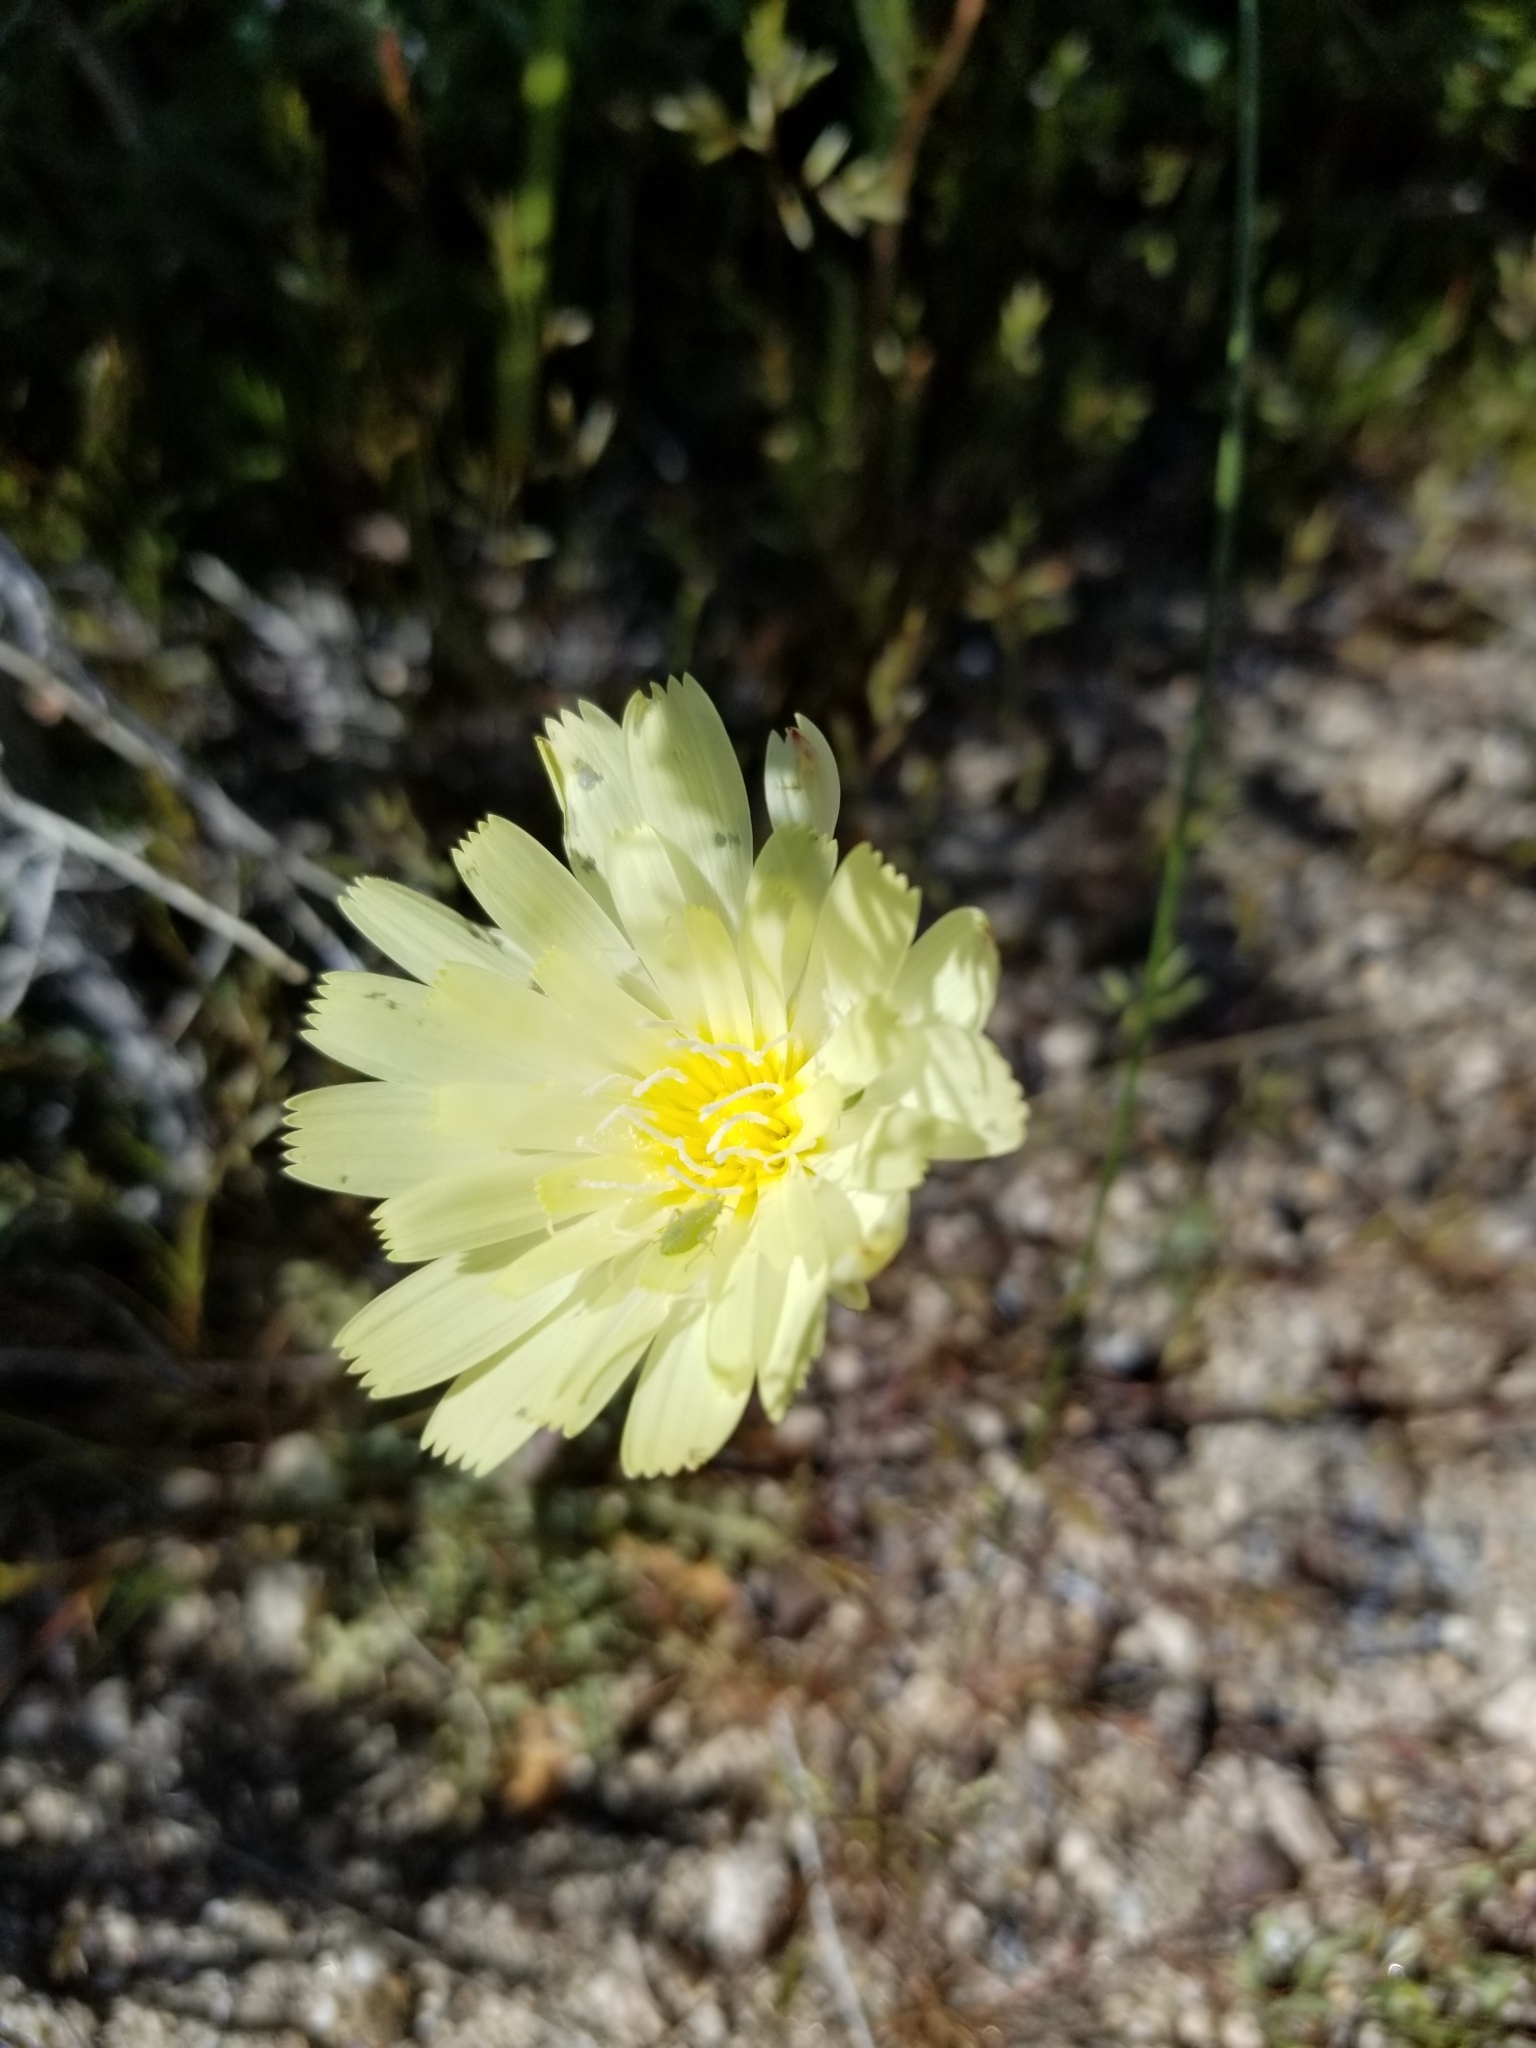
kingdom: Plantae
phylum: Tracheophyta
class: Magnoliopsida
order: Asterales
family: Asteraceae
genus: Malacothrix
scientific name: Malacothrix glabrata
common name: Smooth desert-dandelion
